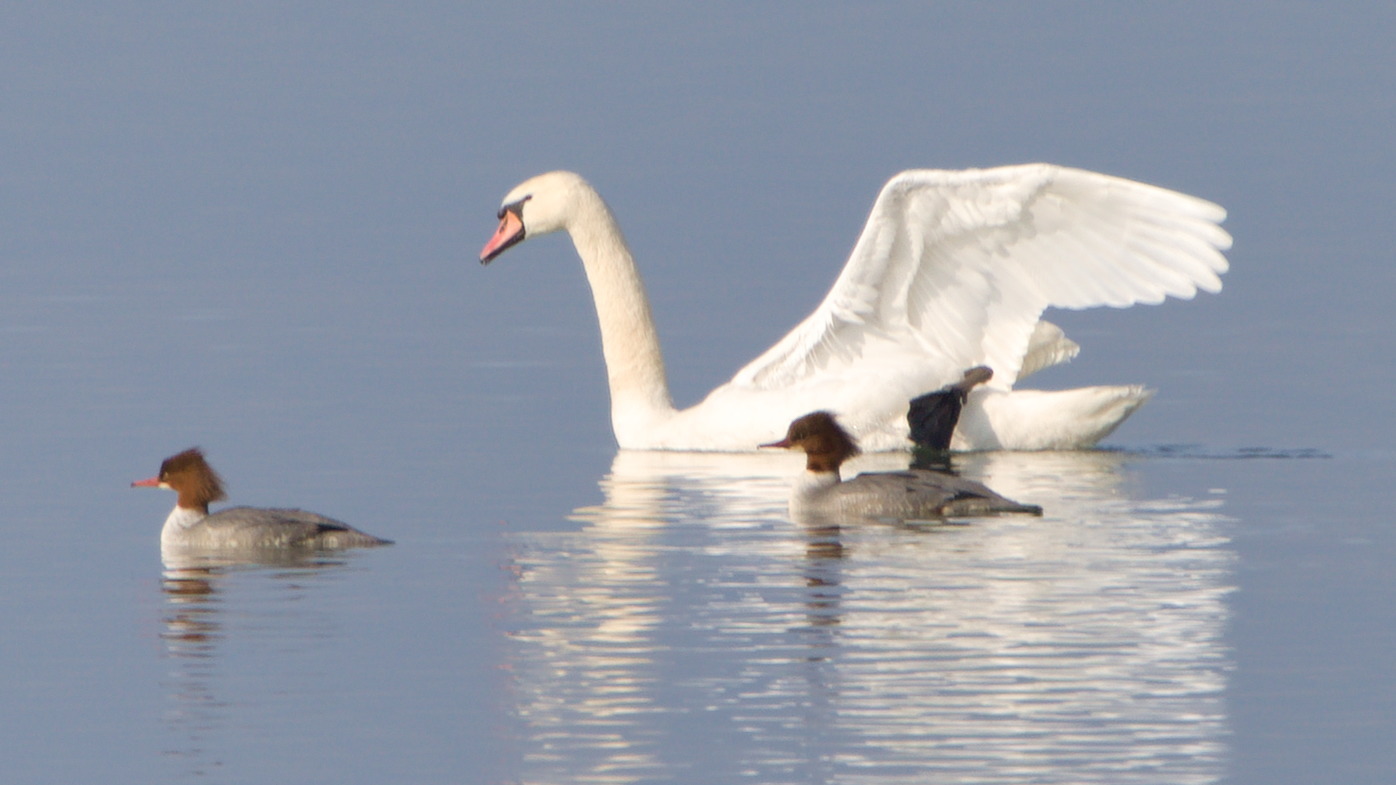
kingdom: Animalia
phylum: Chordata
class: Aves
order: Anseriformes
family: Anatidae
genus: Mergus
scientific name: Mergus merganser
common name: Common merganser
